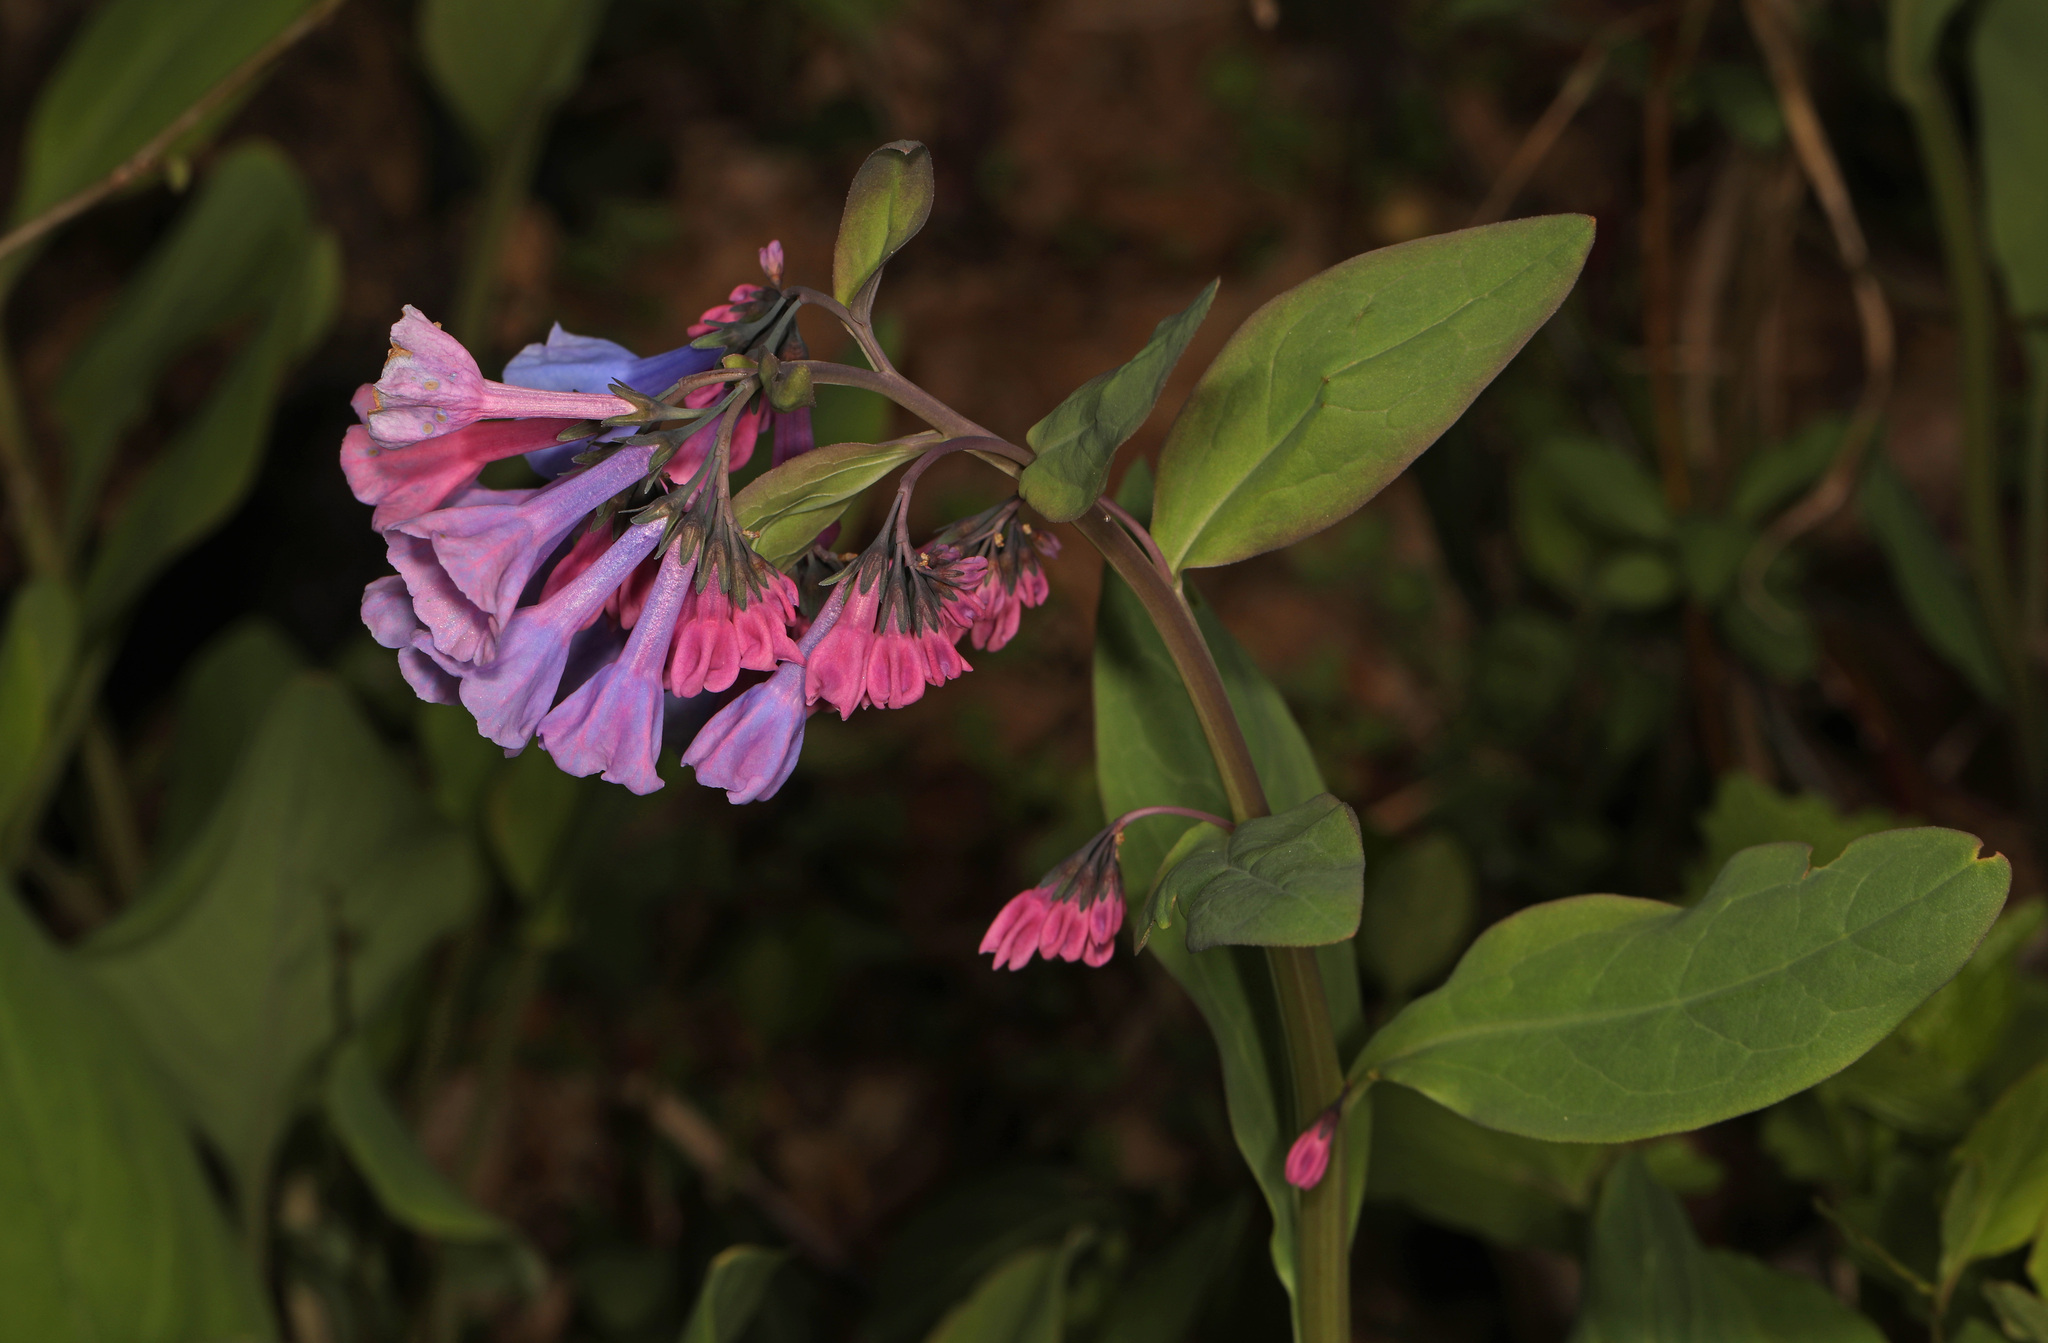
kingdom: Plantae
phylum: Tracheophyta
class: Magnoliopsida
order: Boraginales
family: Boraginaceae
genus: Mertensia
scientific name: Mertensia virginica
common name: Virginia bluebells
